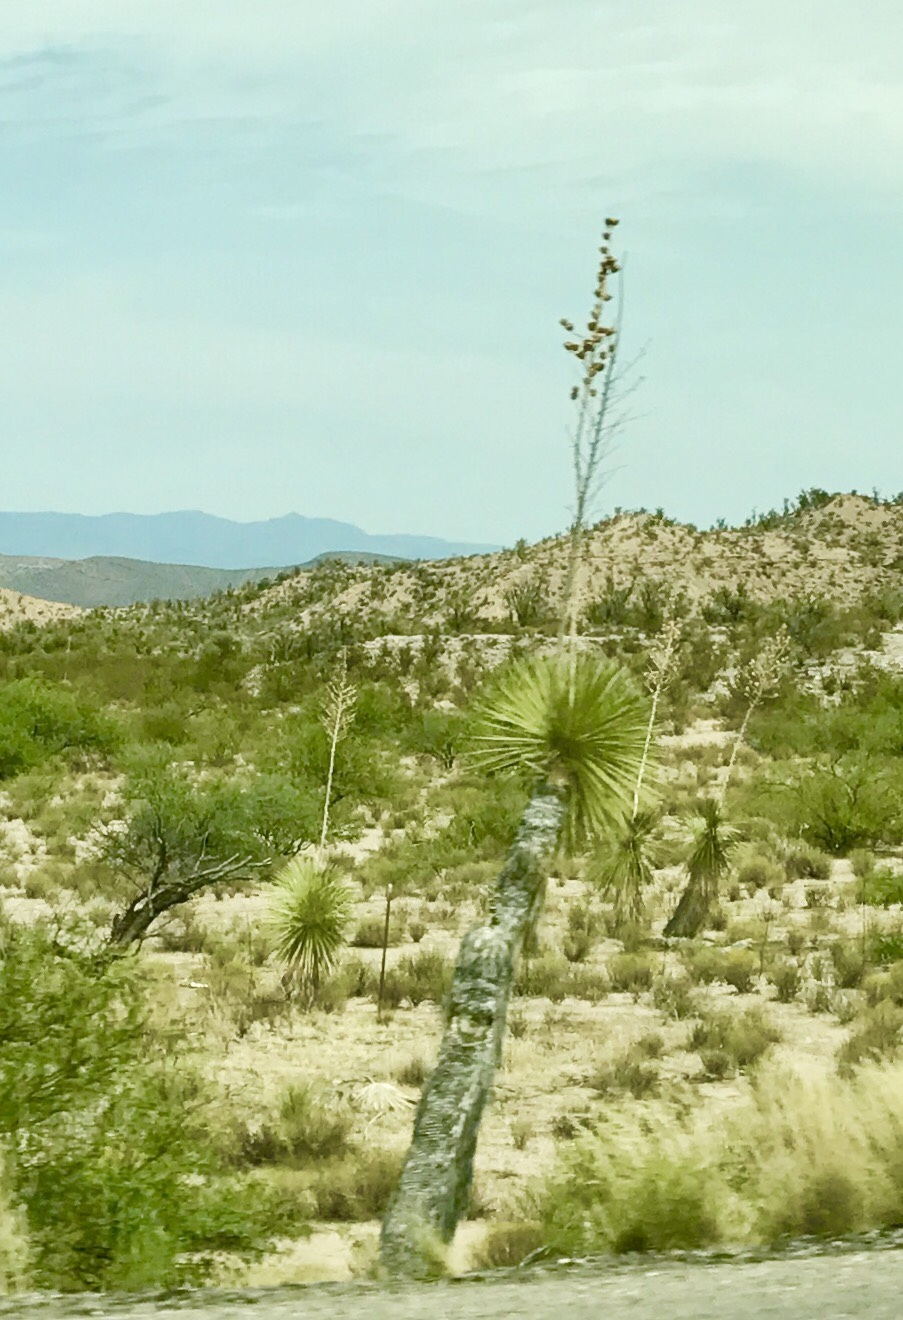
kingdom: Plantae
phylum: Tracheophyta
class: Liliopsida
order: Asparagales
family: Asparagaceae
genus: Yucca
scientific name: Yucca elata
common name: Palmella
